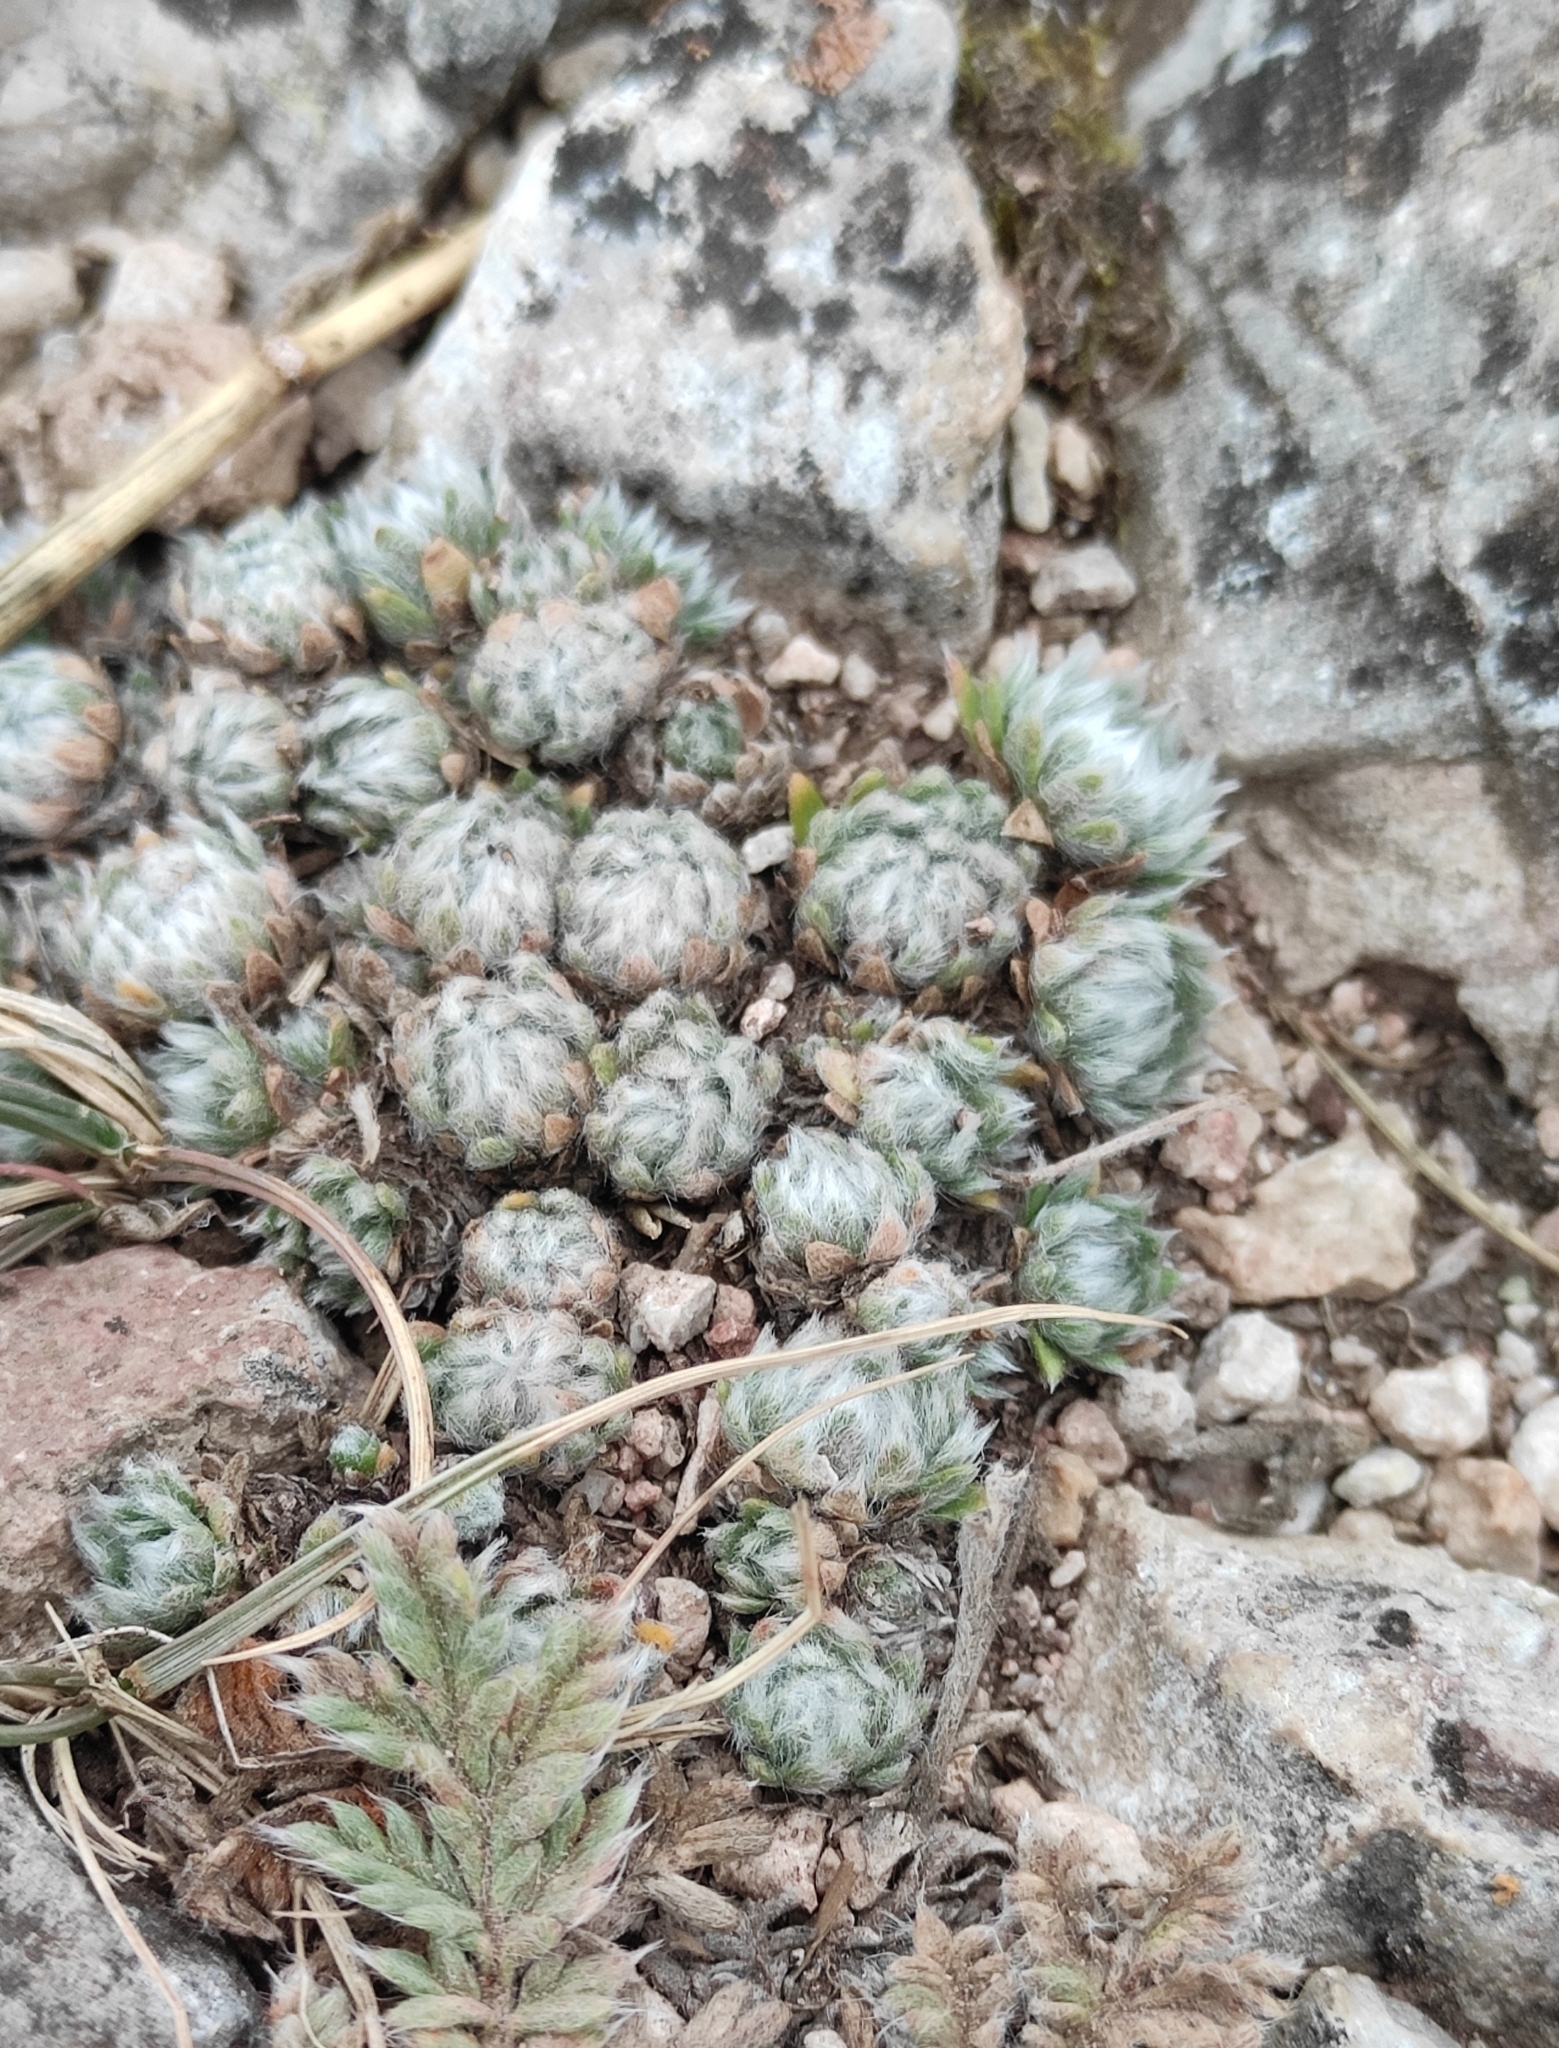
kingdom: Plantae
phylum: Tracheophyta
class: Magnoliopsida
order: Ericales
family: Primulaceae
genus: Androsace
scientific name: Androsace incana
